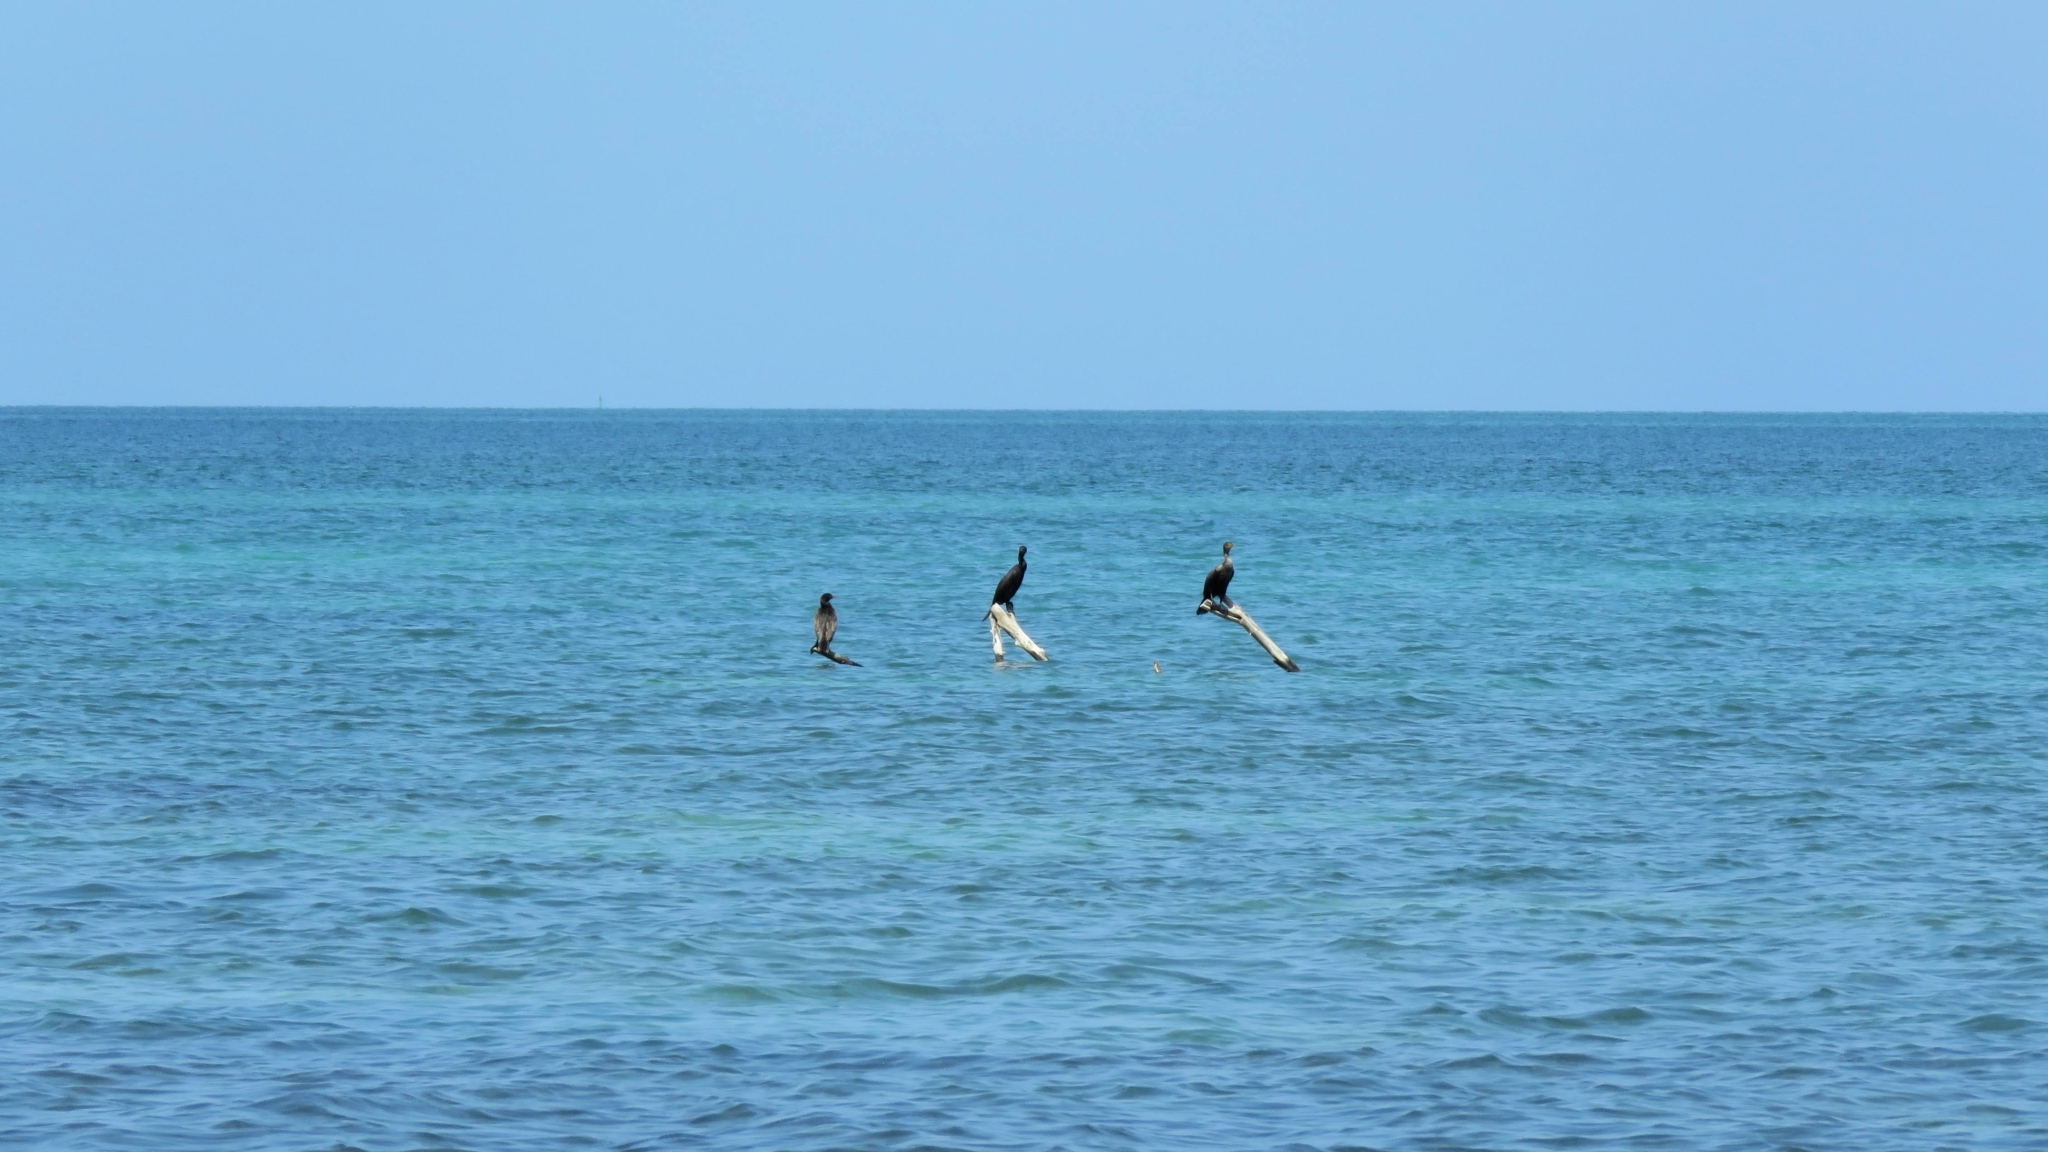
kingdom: Animalia
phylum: Chordata
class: Aves
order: Suliformes
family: Phalacrocoracidae
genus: Phalacrocorax
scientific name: Phalacrocorax auritus
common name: Double-crested cormorant
